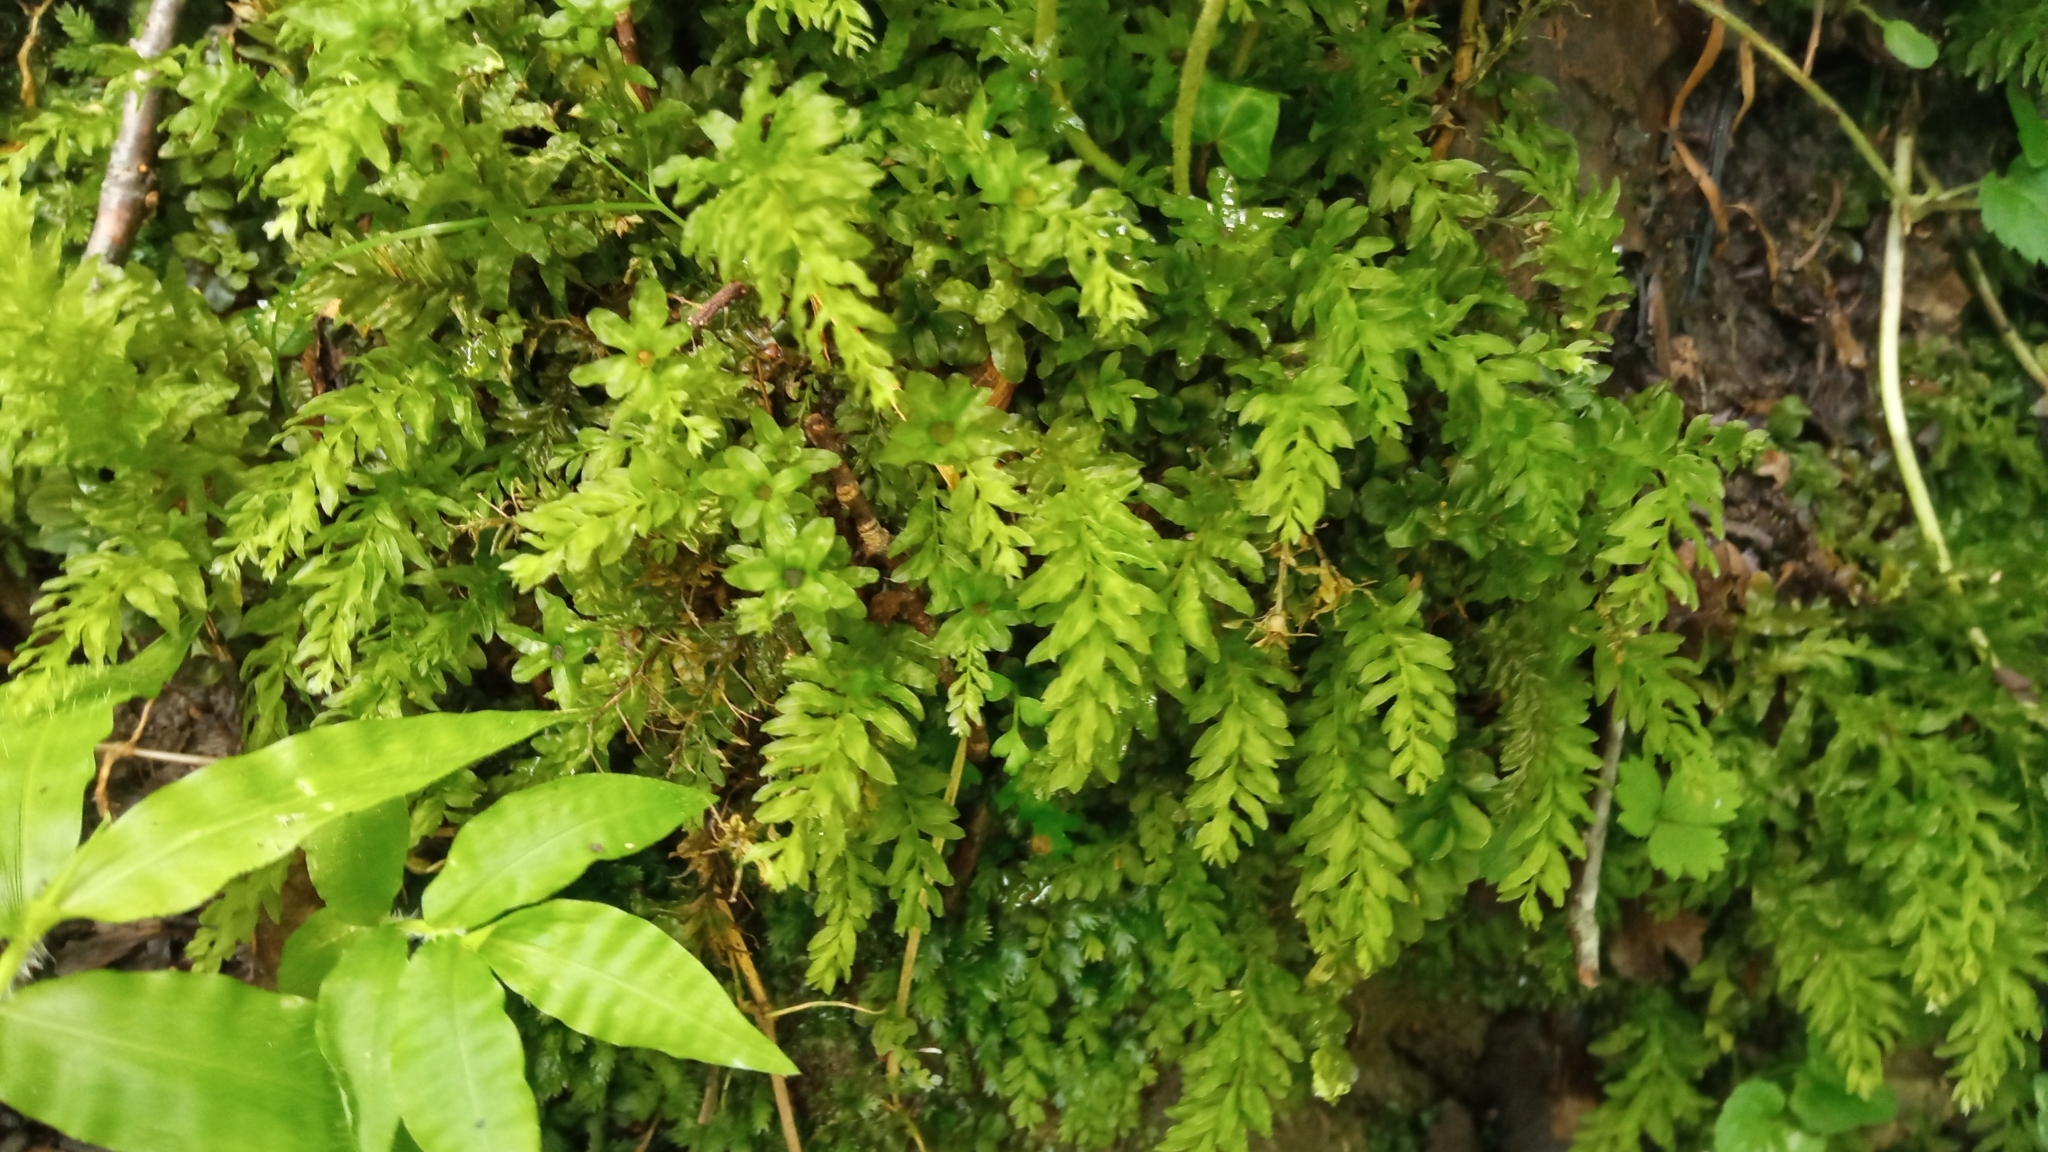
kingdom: Plantae
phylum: Bryophyta
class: Bryopsida
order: Bryales
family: Mniaceae
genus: Plagiomnium
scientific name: Plagiomnium undulatum
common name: Hart's-tongue thyme-moss
